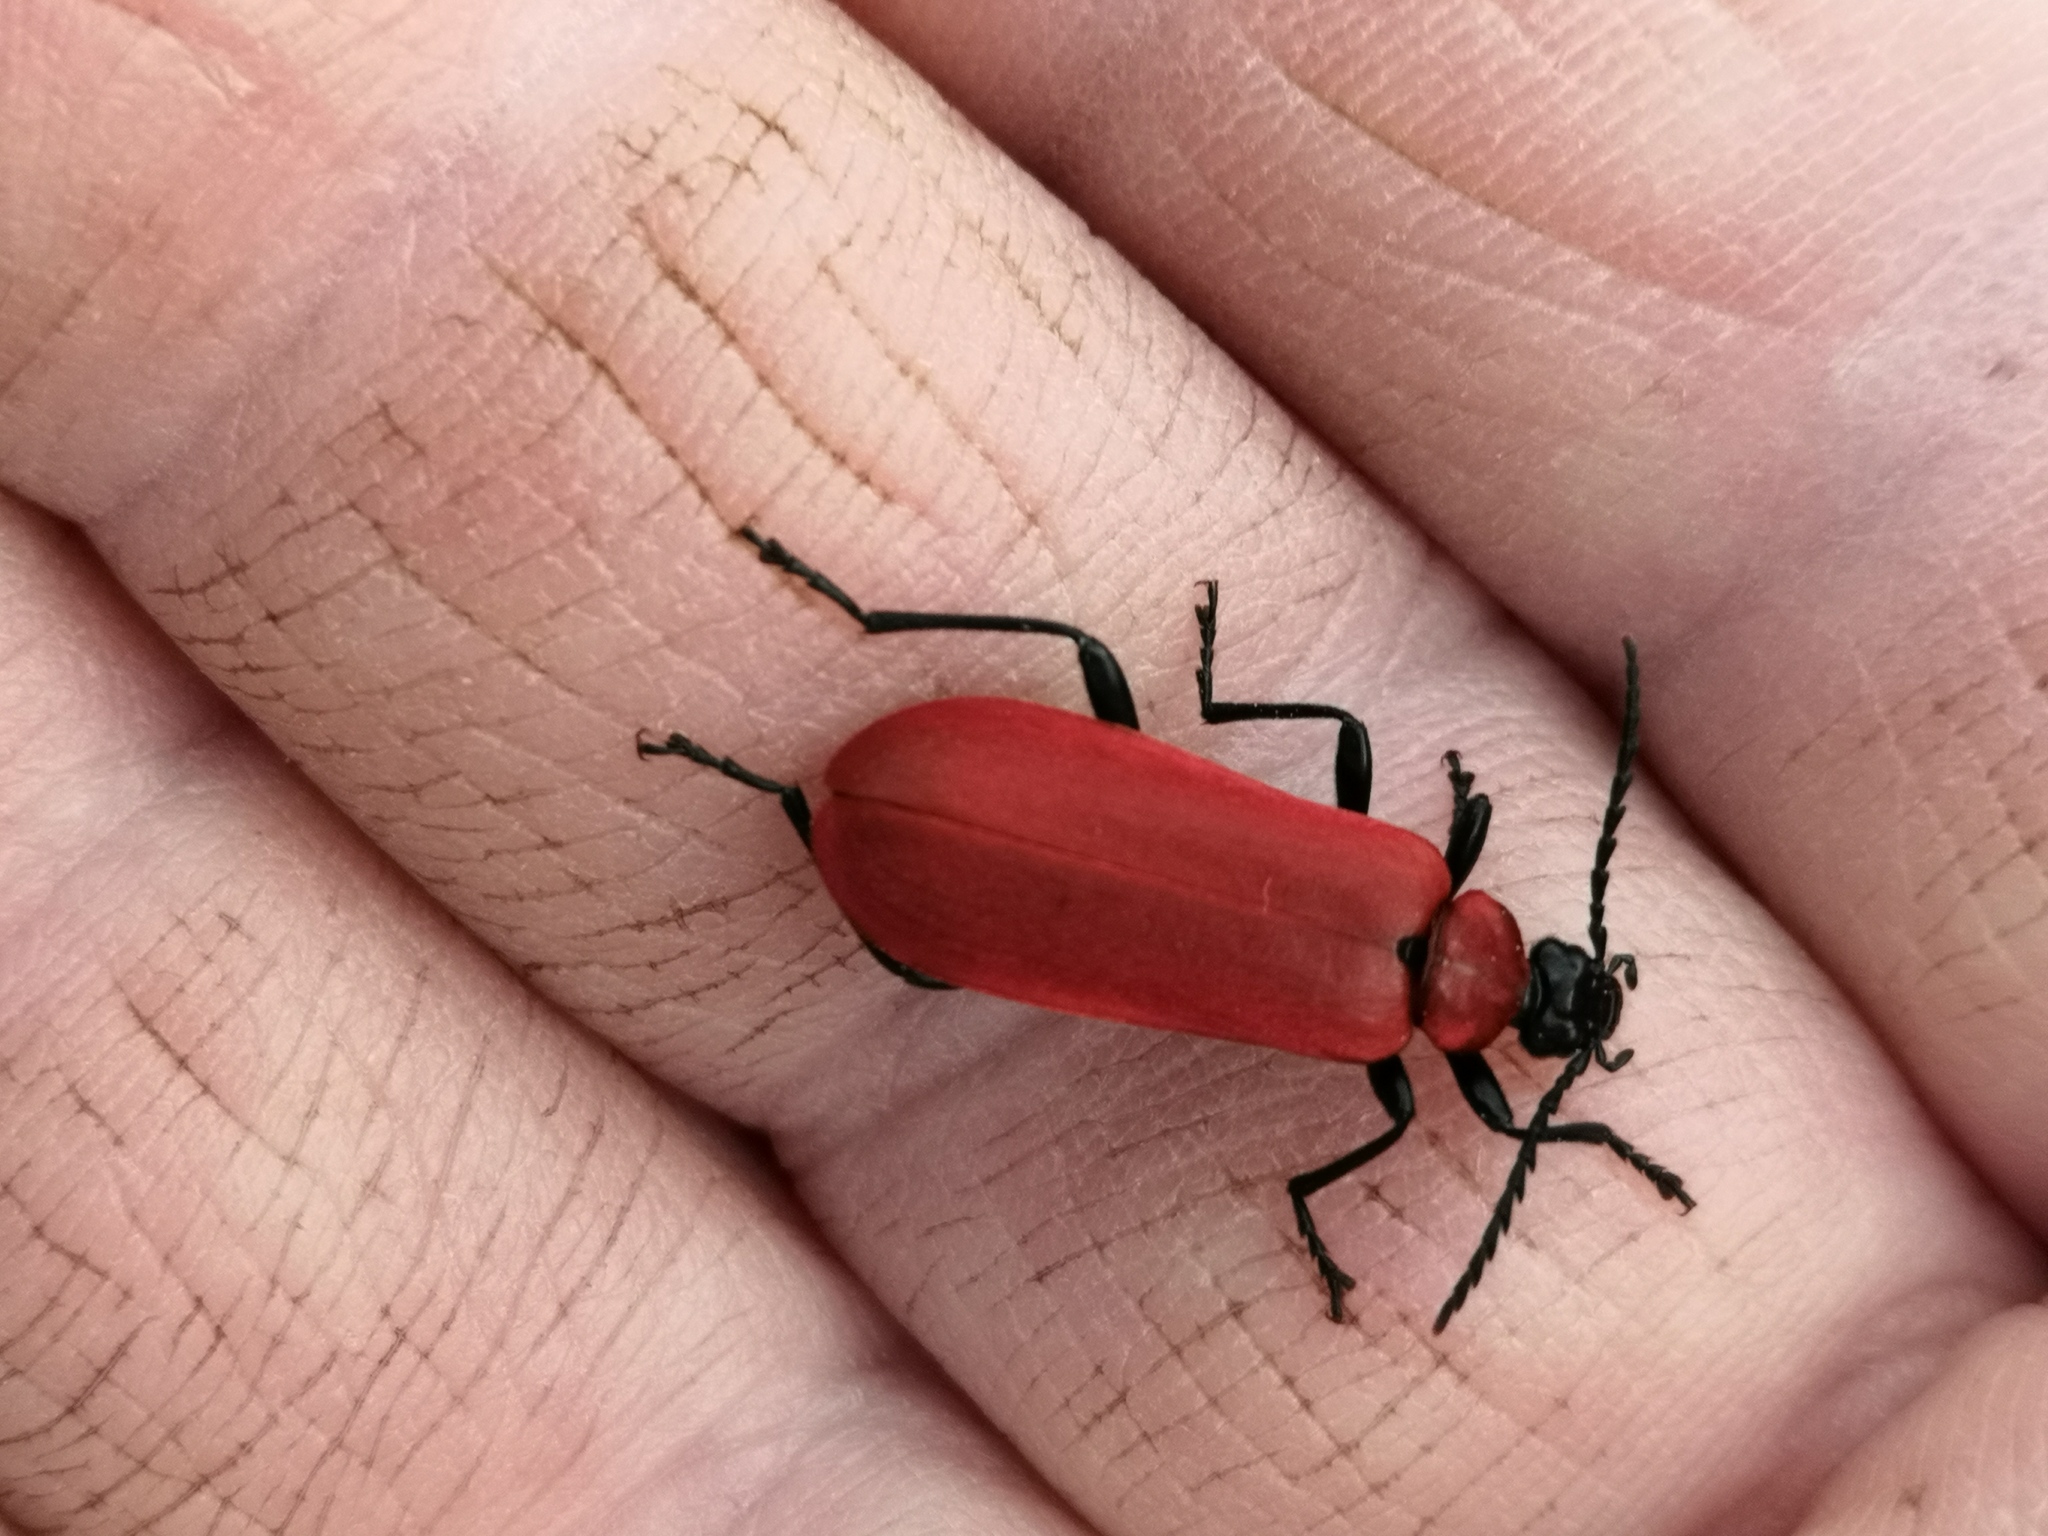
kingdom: Animalia
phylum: Arthropoda
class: Insecta
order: Coleoptera
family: Pyrochroidae
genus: Pyrochroa
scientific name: Pyrochroa coccinea
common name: Black-headed cardinal beetle
